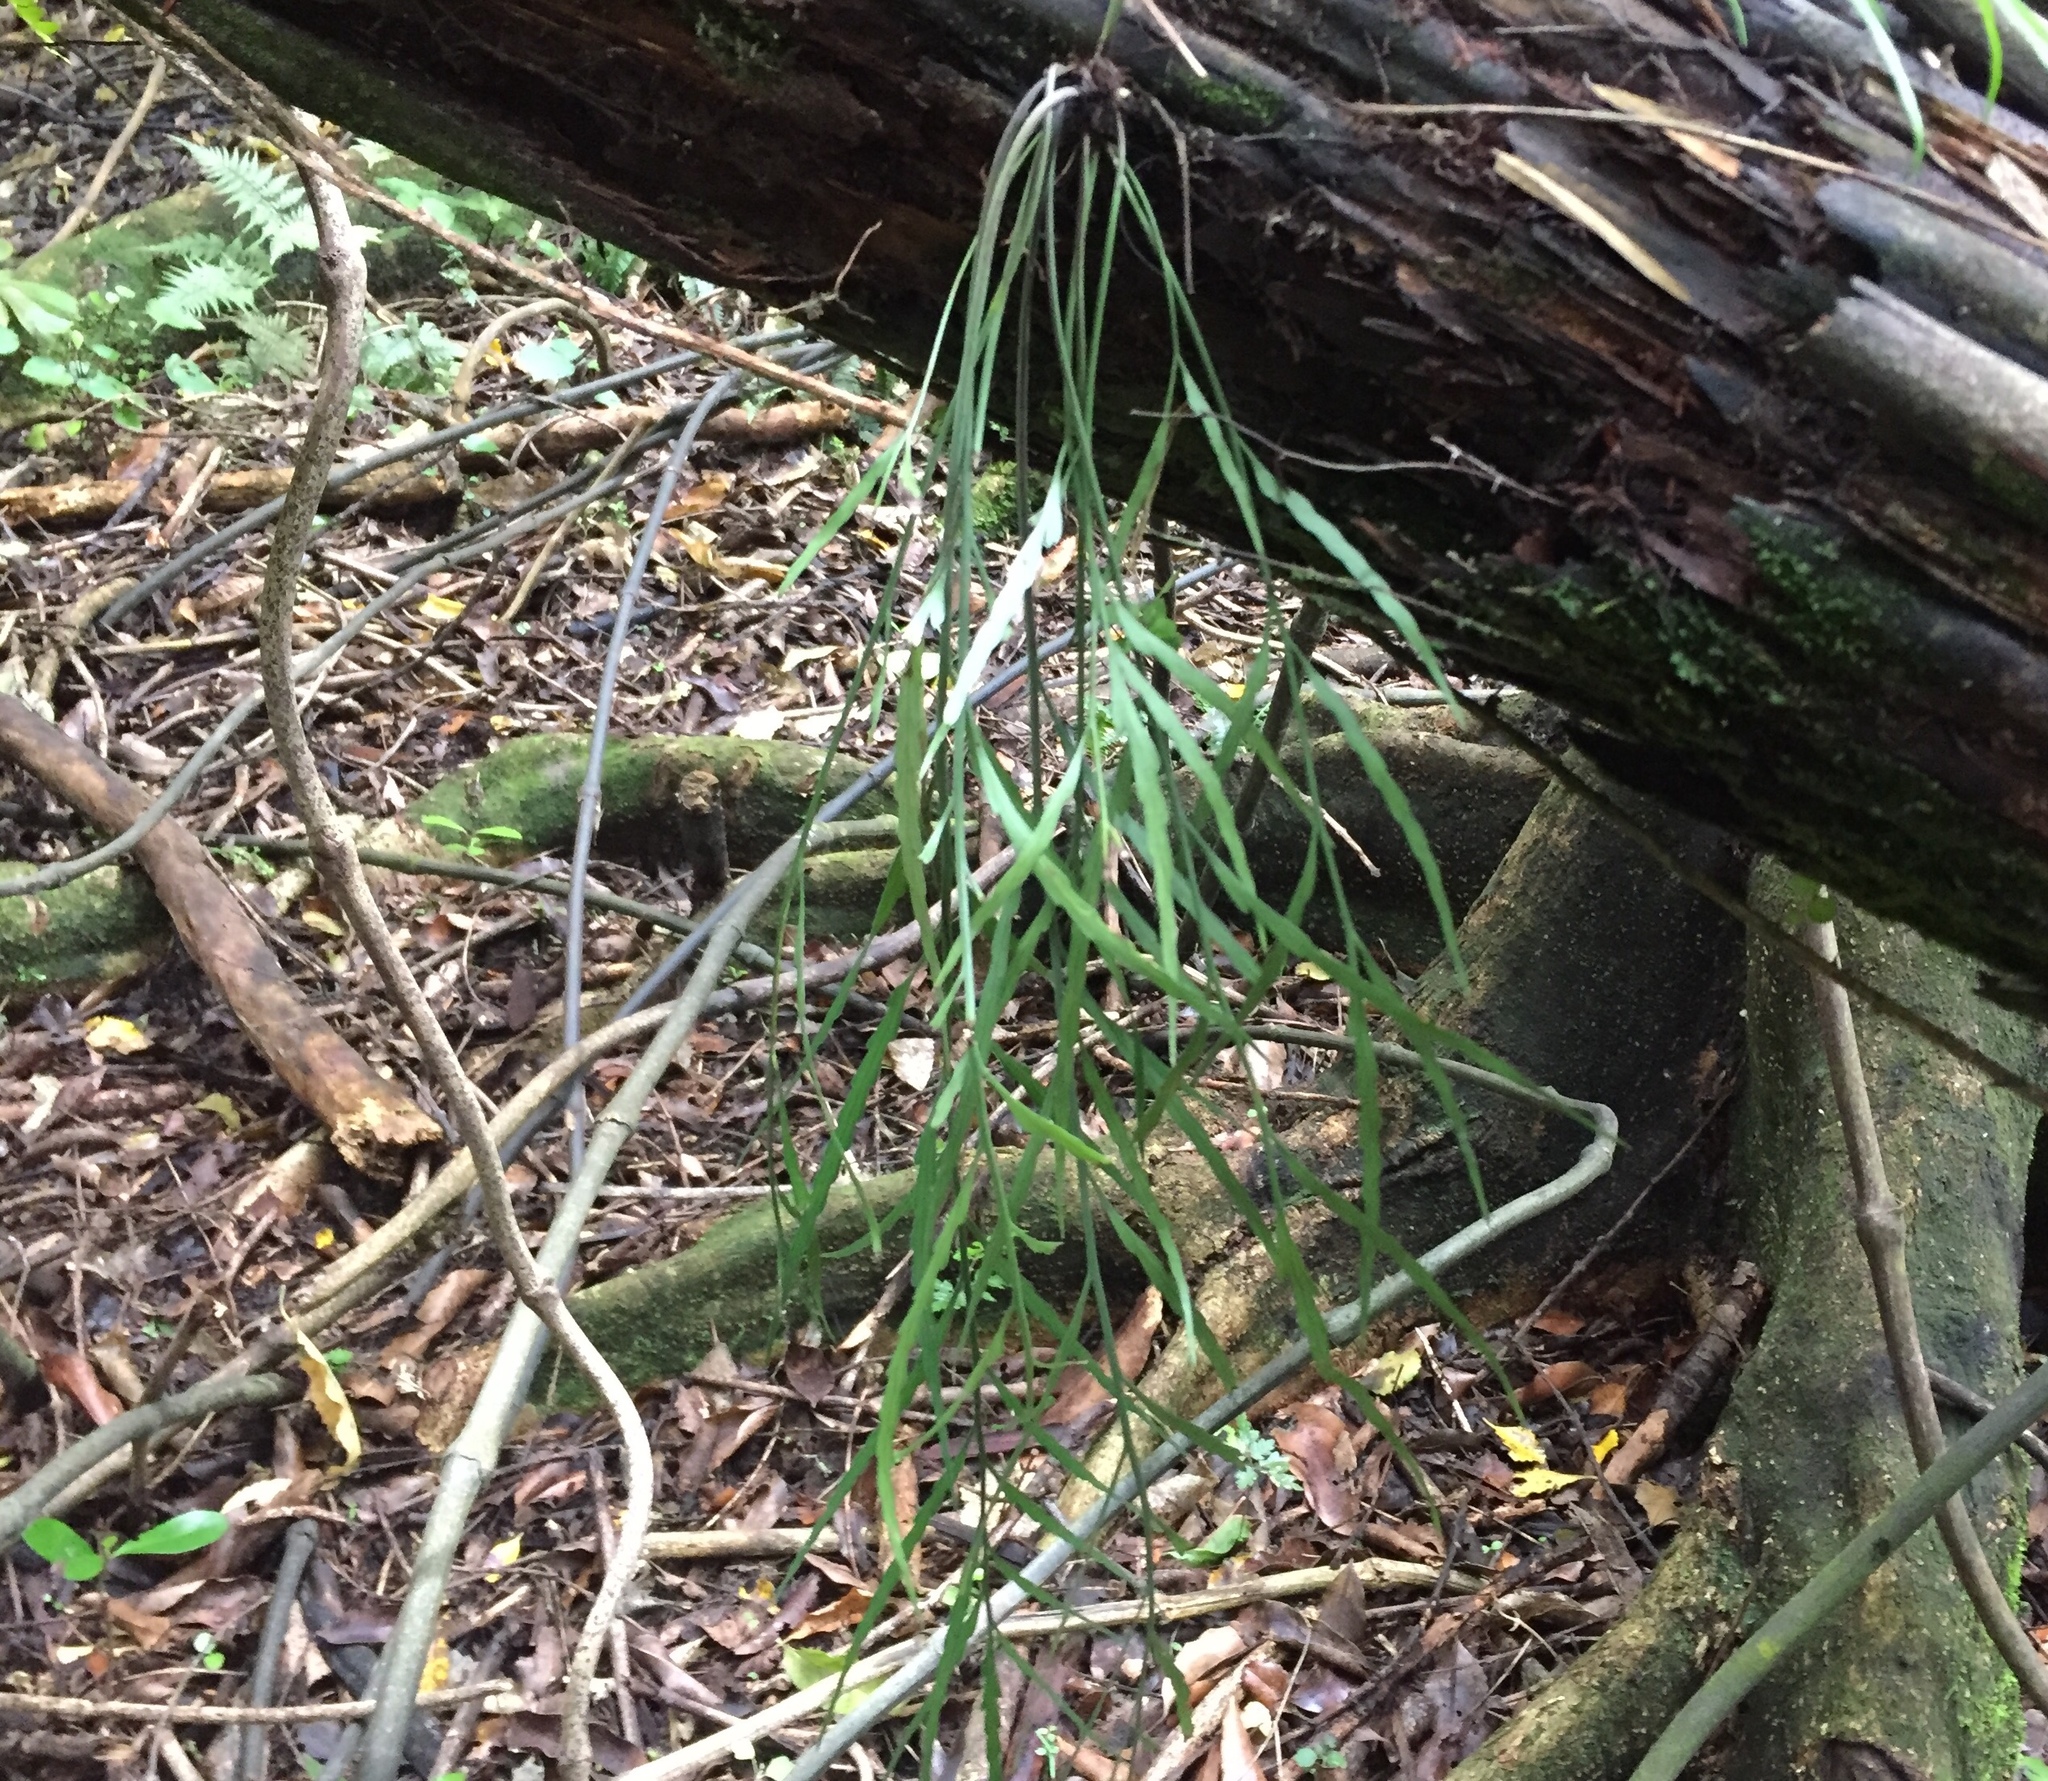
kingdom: Plantae
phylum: Tracheophyta
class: Polypodiopsida
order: Polypodiales
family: Aspleniaceae
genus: Asplenium
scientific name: Asplenium flaccidum
